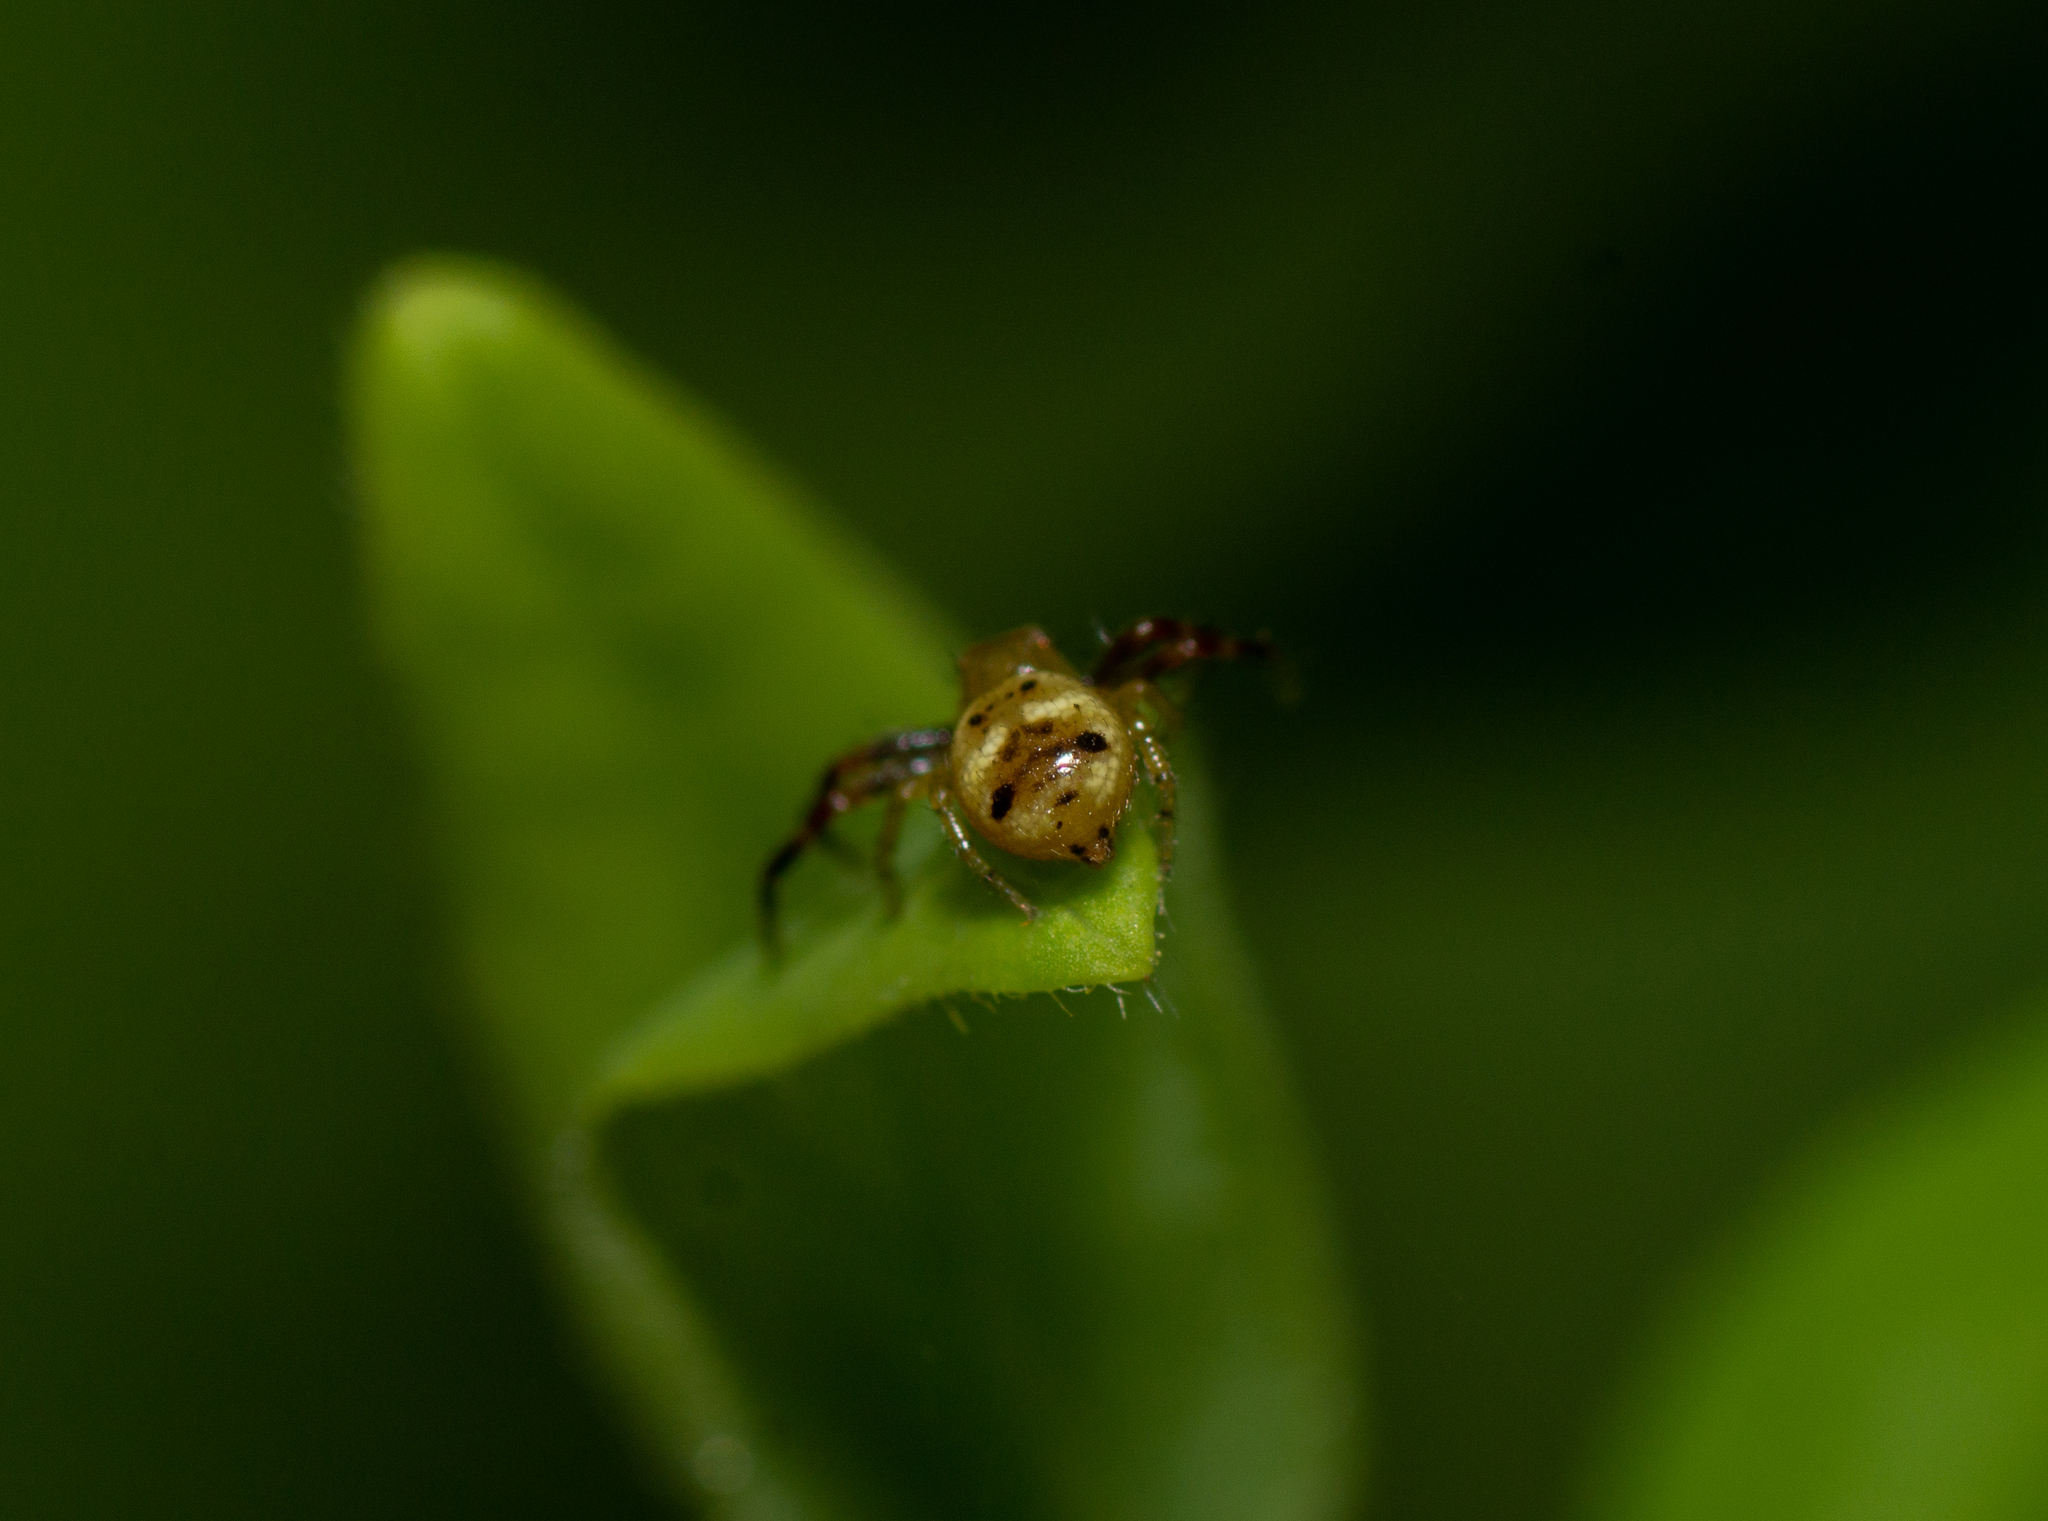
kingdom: Animalia
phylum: Arthropoda
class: Arachnida
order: Araneae
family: Thomisidae
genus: Synema
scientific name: Synema globosum
